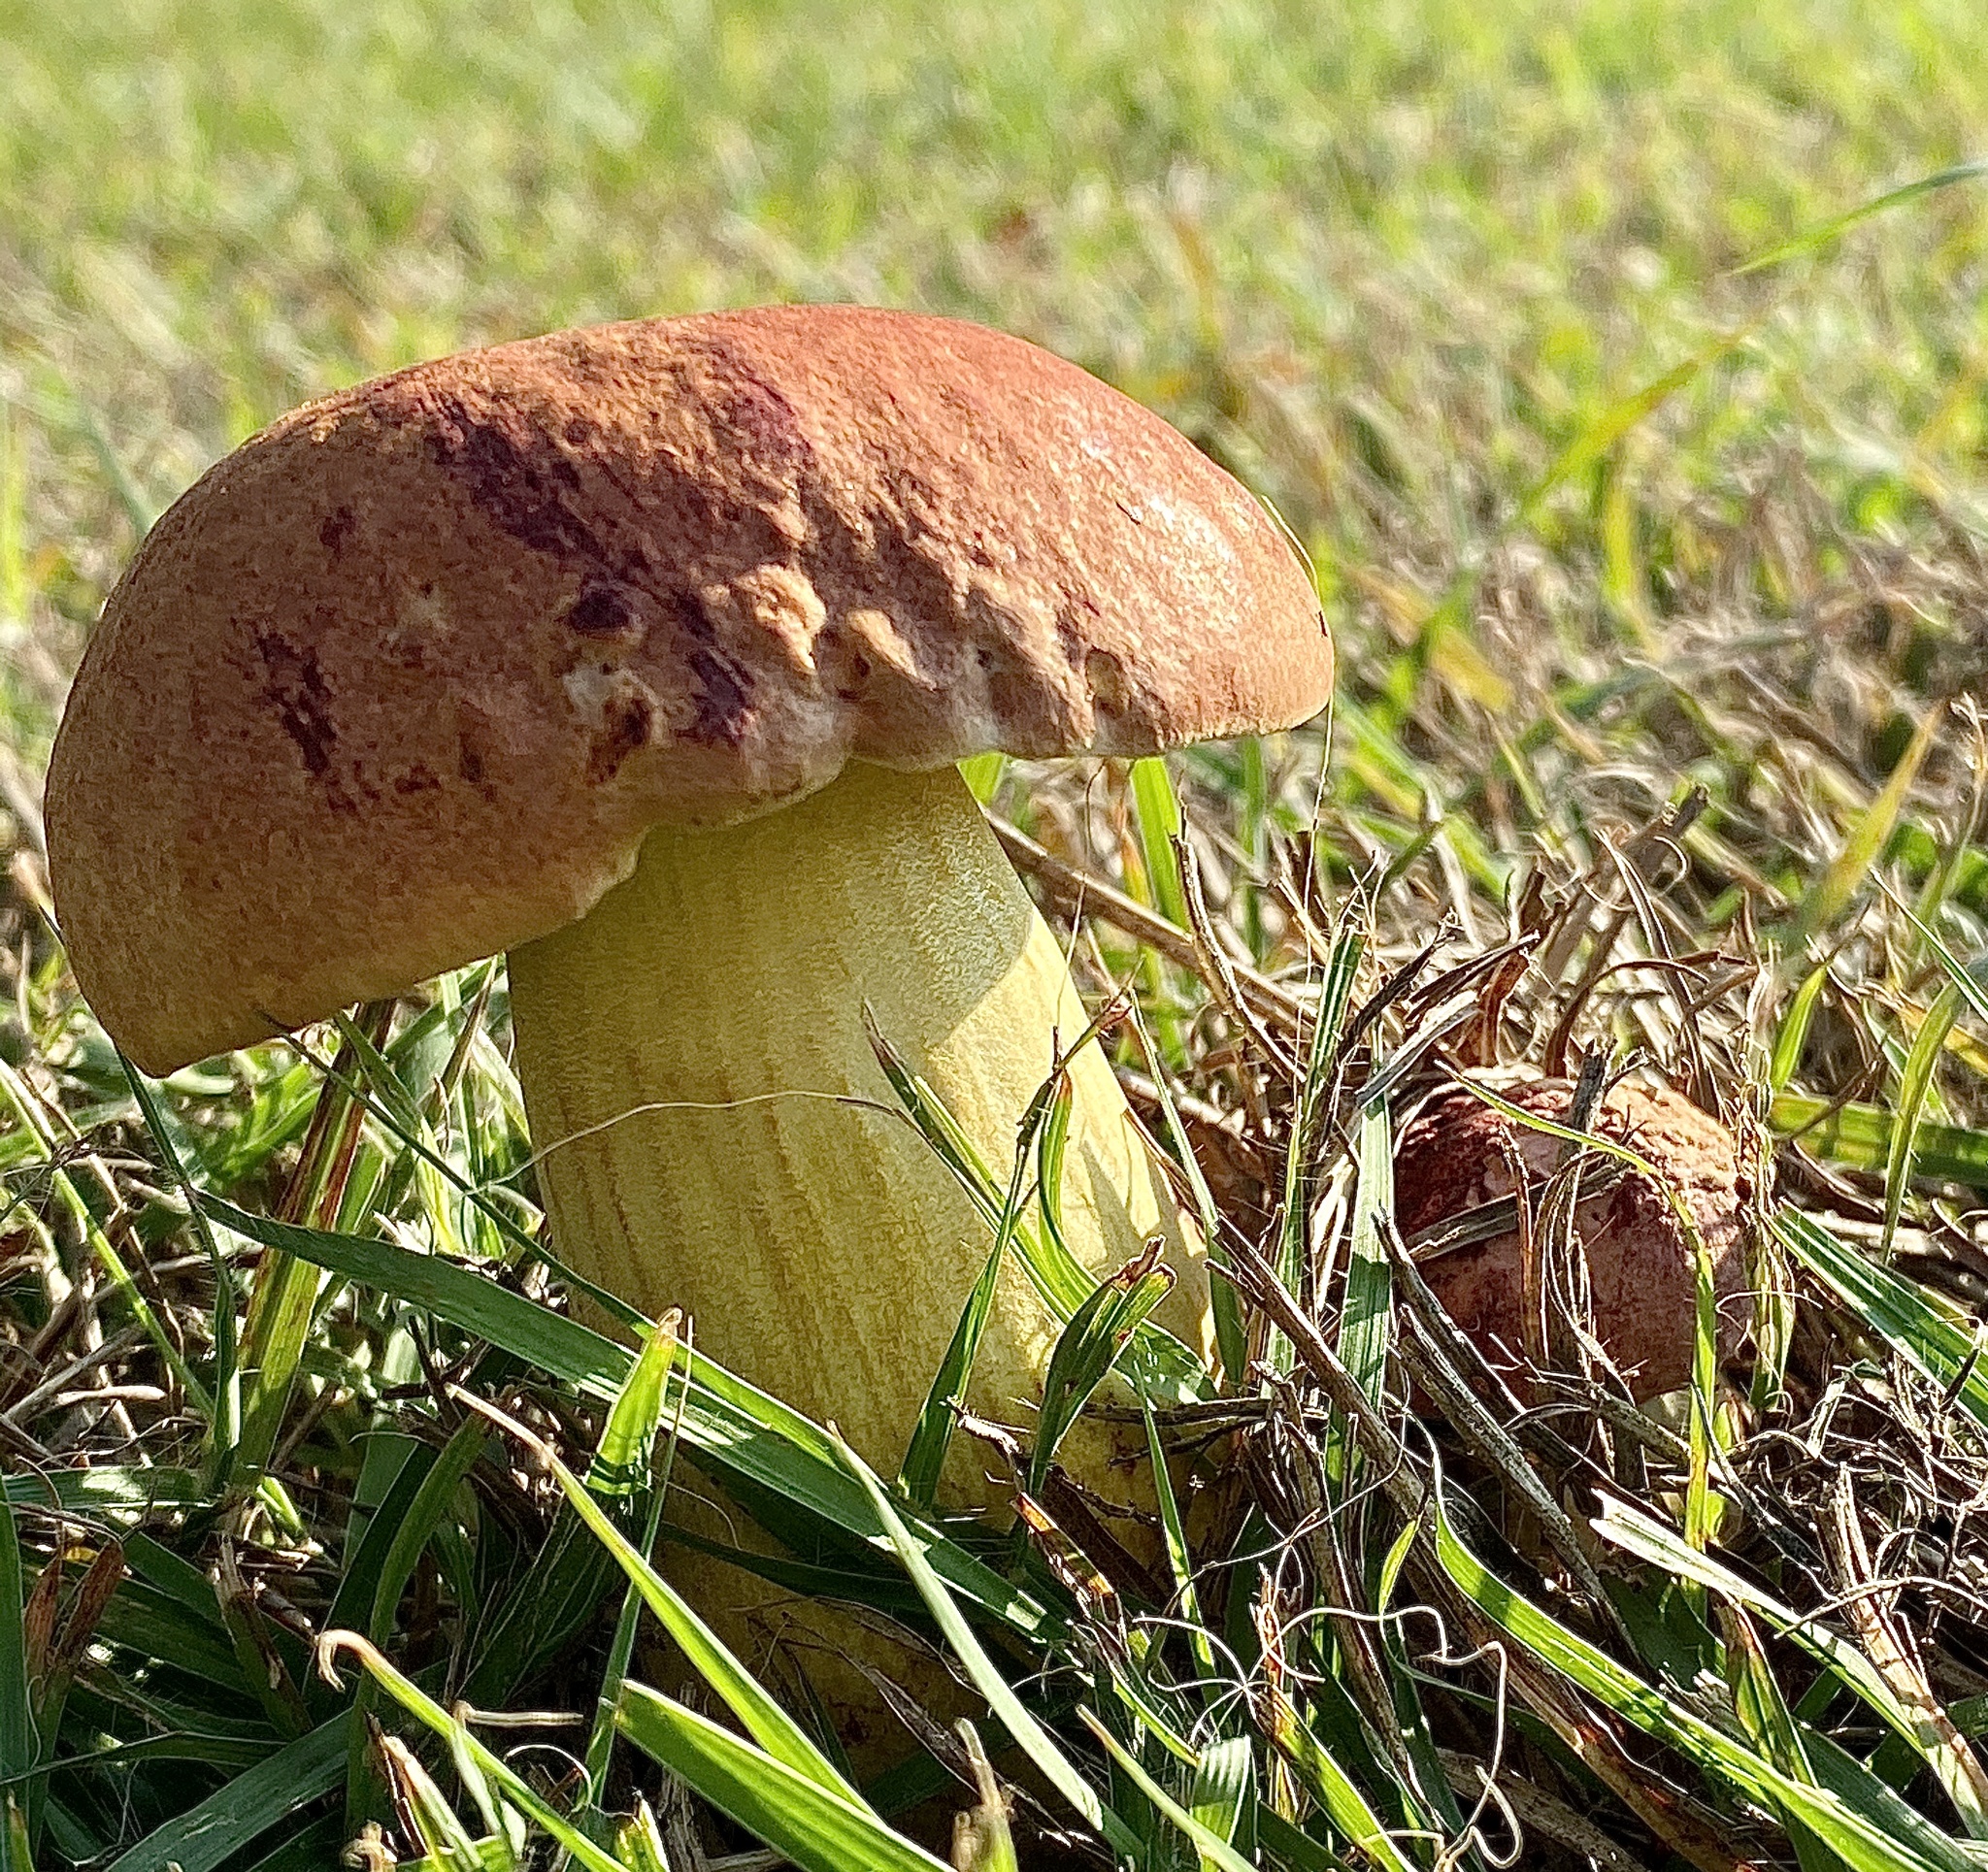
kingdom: Fungi
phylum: Basidiomycota
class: Agaricomycetes
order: Boletales
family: Boletaceae
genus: Pulchroboletus
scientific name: Pulchroboletus rubricitrinus
